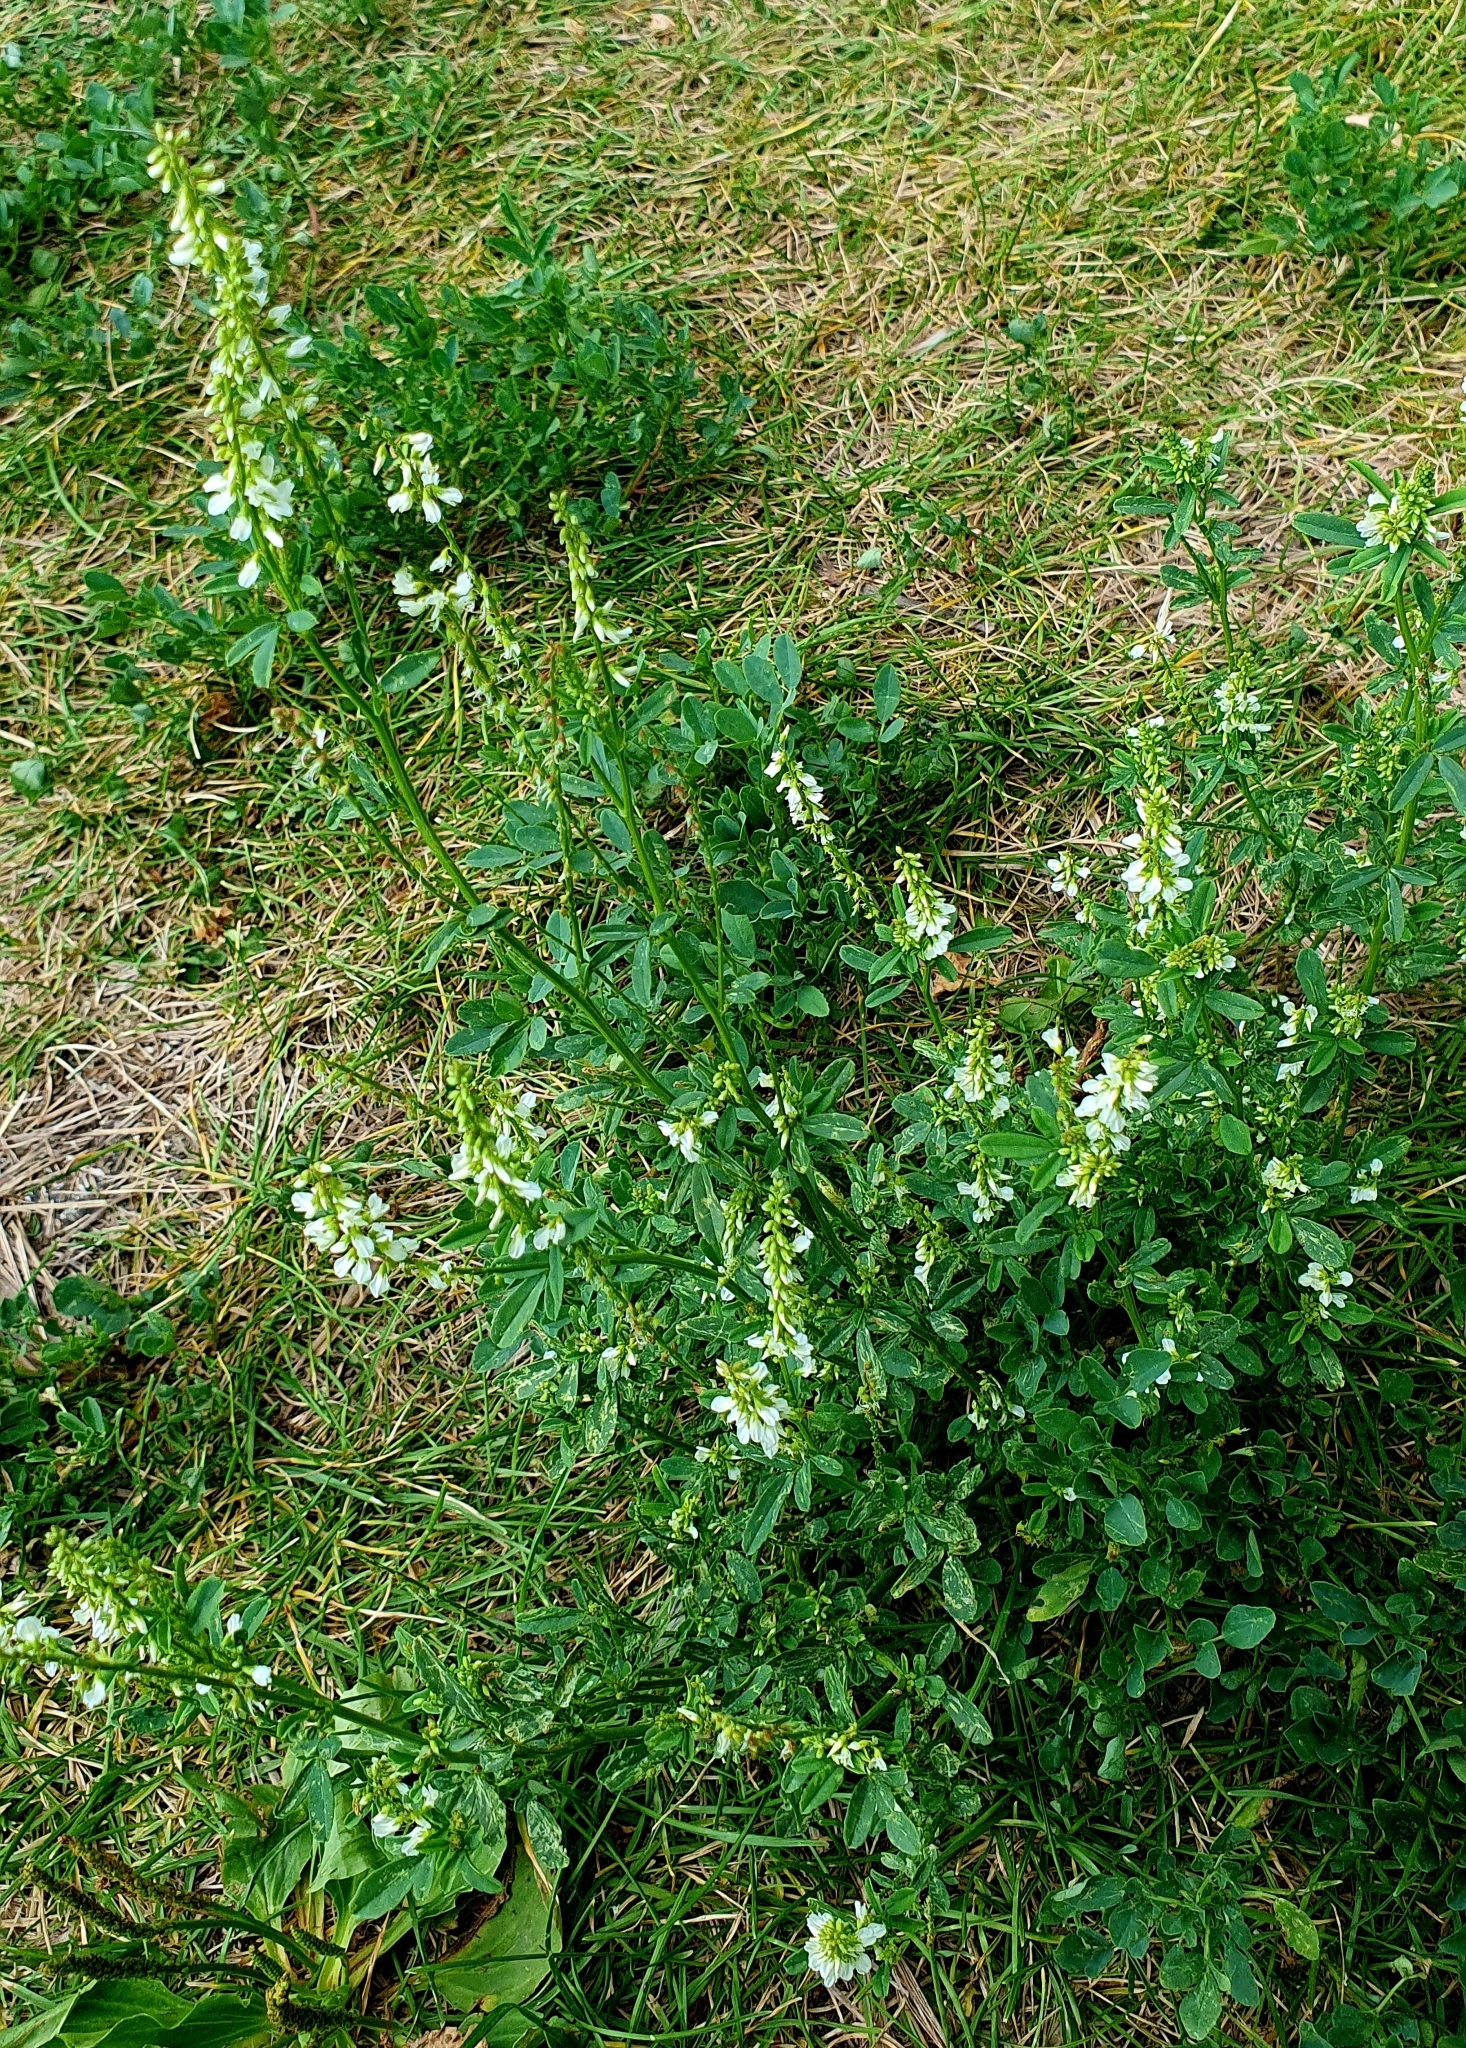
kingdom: Plantae
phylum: Tracheophyta
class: Magnoliopsida
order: Fabales
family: Fabaceae
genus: Melilotus
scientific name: Melilotus albus
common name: White melilot
